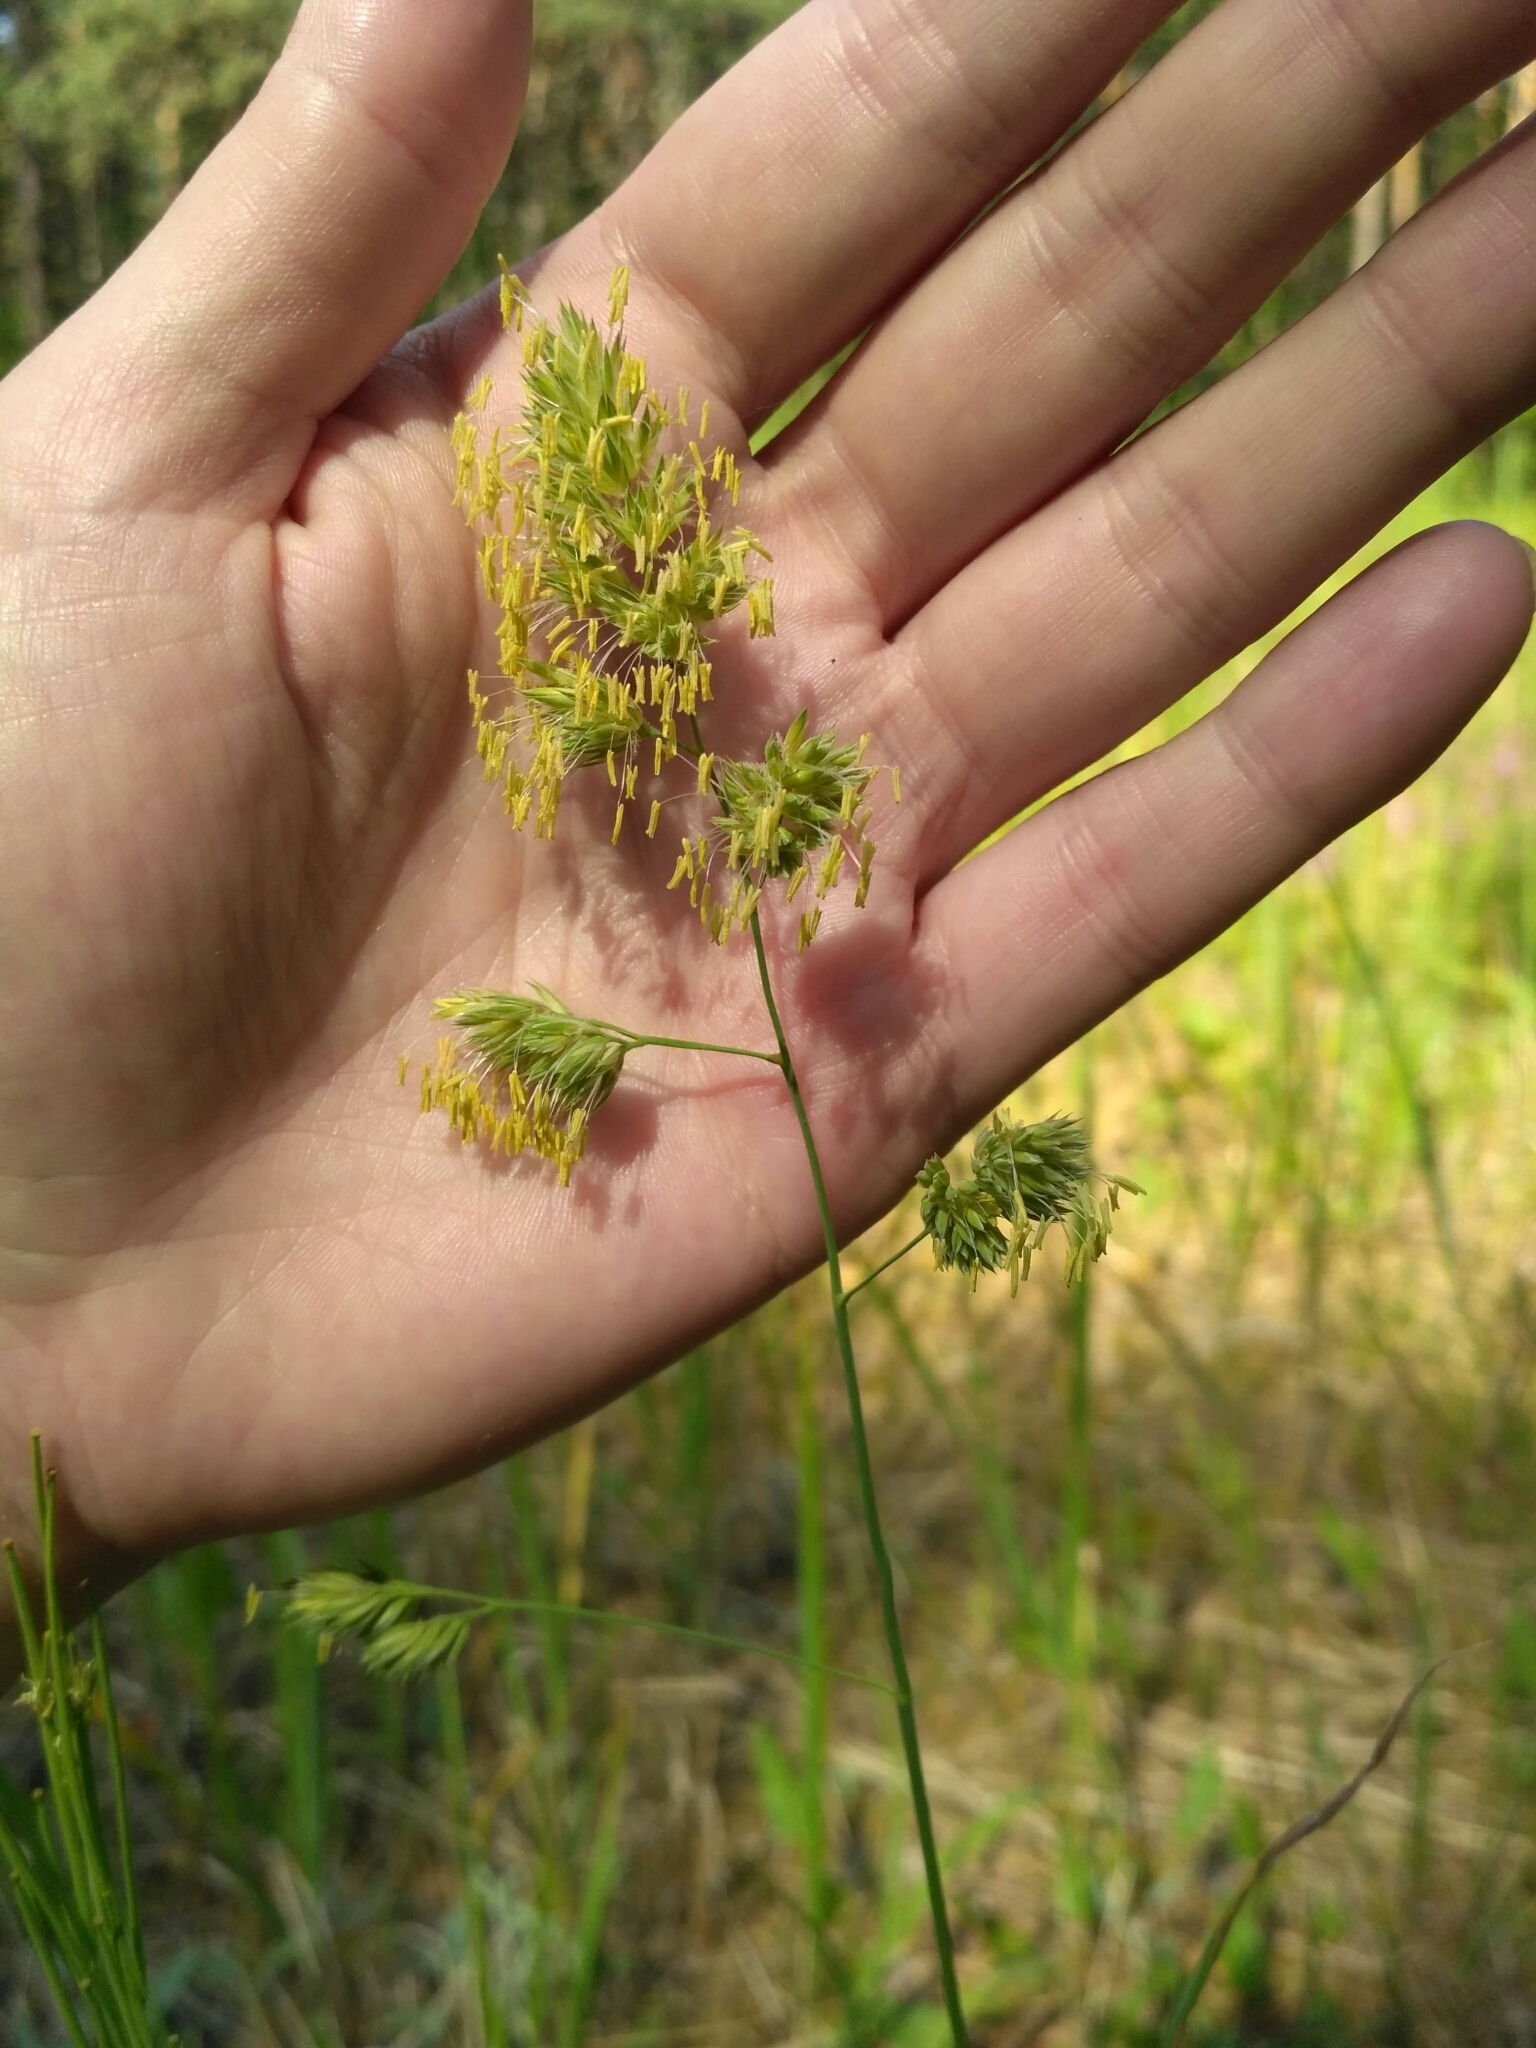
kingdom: Plantae
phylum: Tracheophyta
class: Liliopsida
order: Poales
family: Poaceae
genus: Dactylis
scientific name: Dactylis glomerata
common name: Orchardgrass
